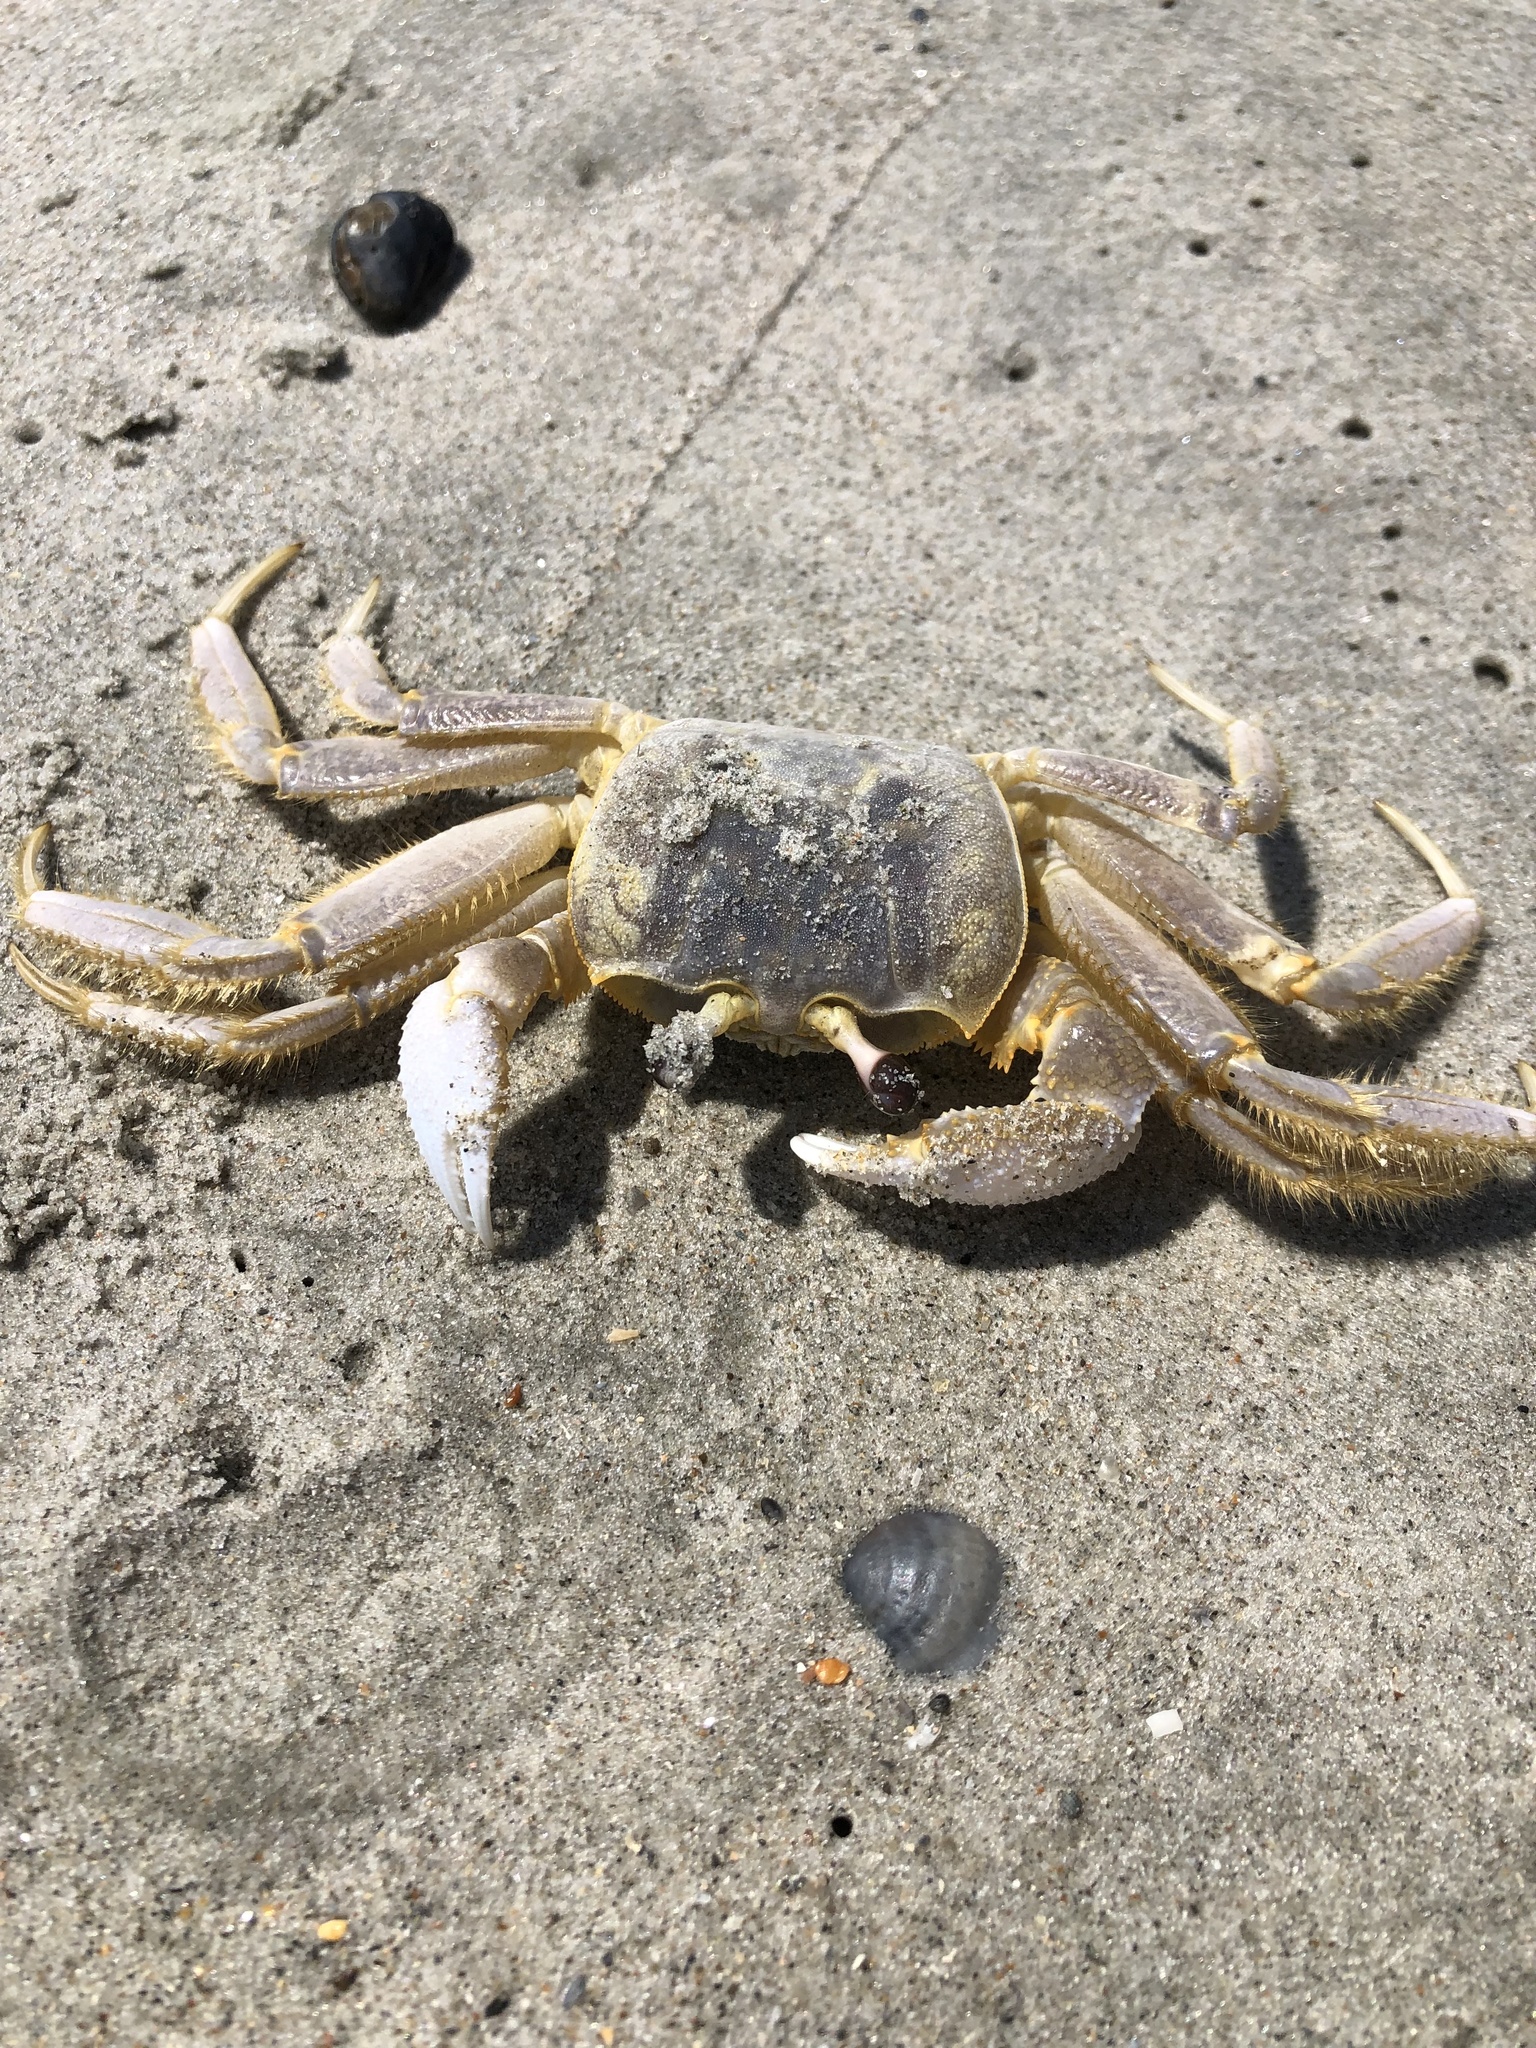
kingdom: Animalia
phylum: Arthropoda
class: Malacostraca
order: Decapoda
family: Ocypodidae
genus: Ocypode
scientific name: Ocypode quadrata
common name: Ghost crab
